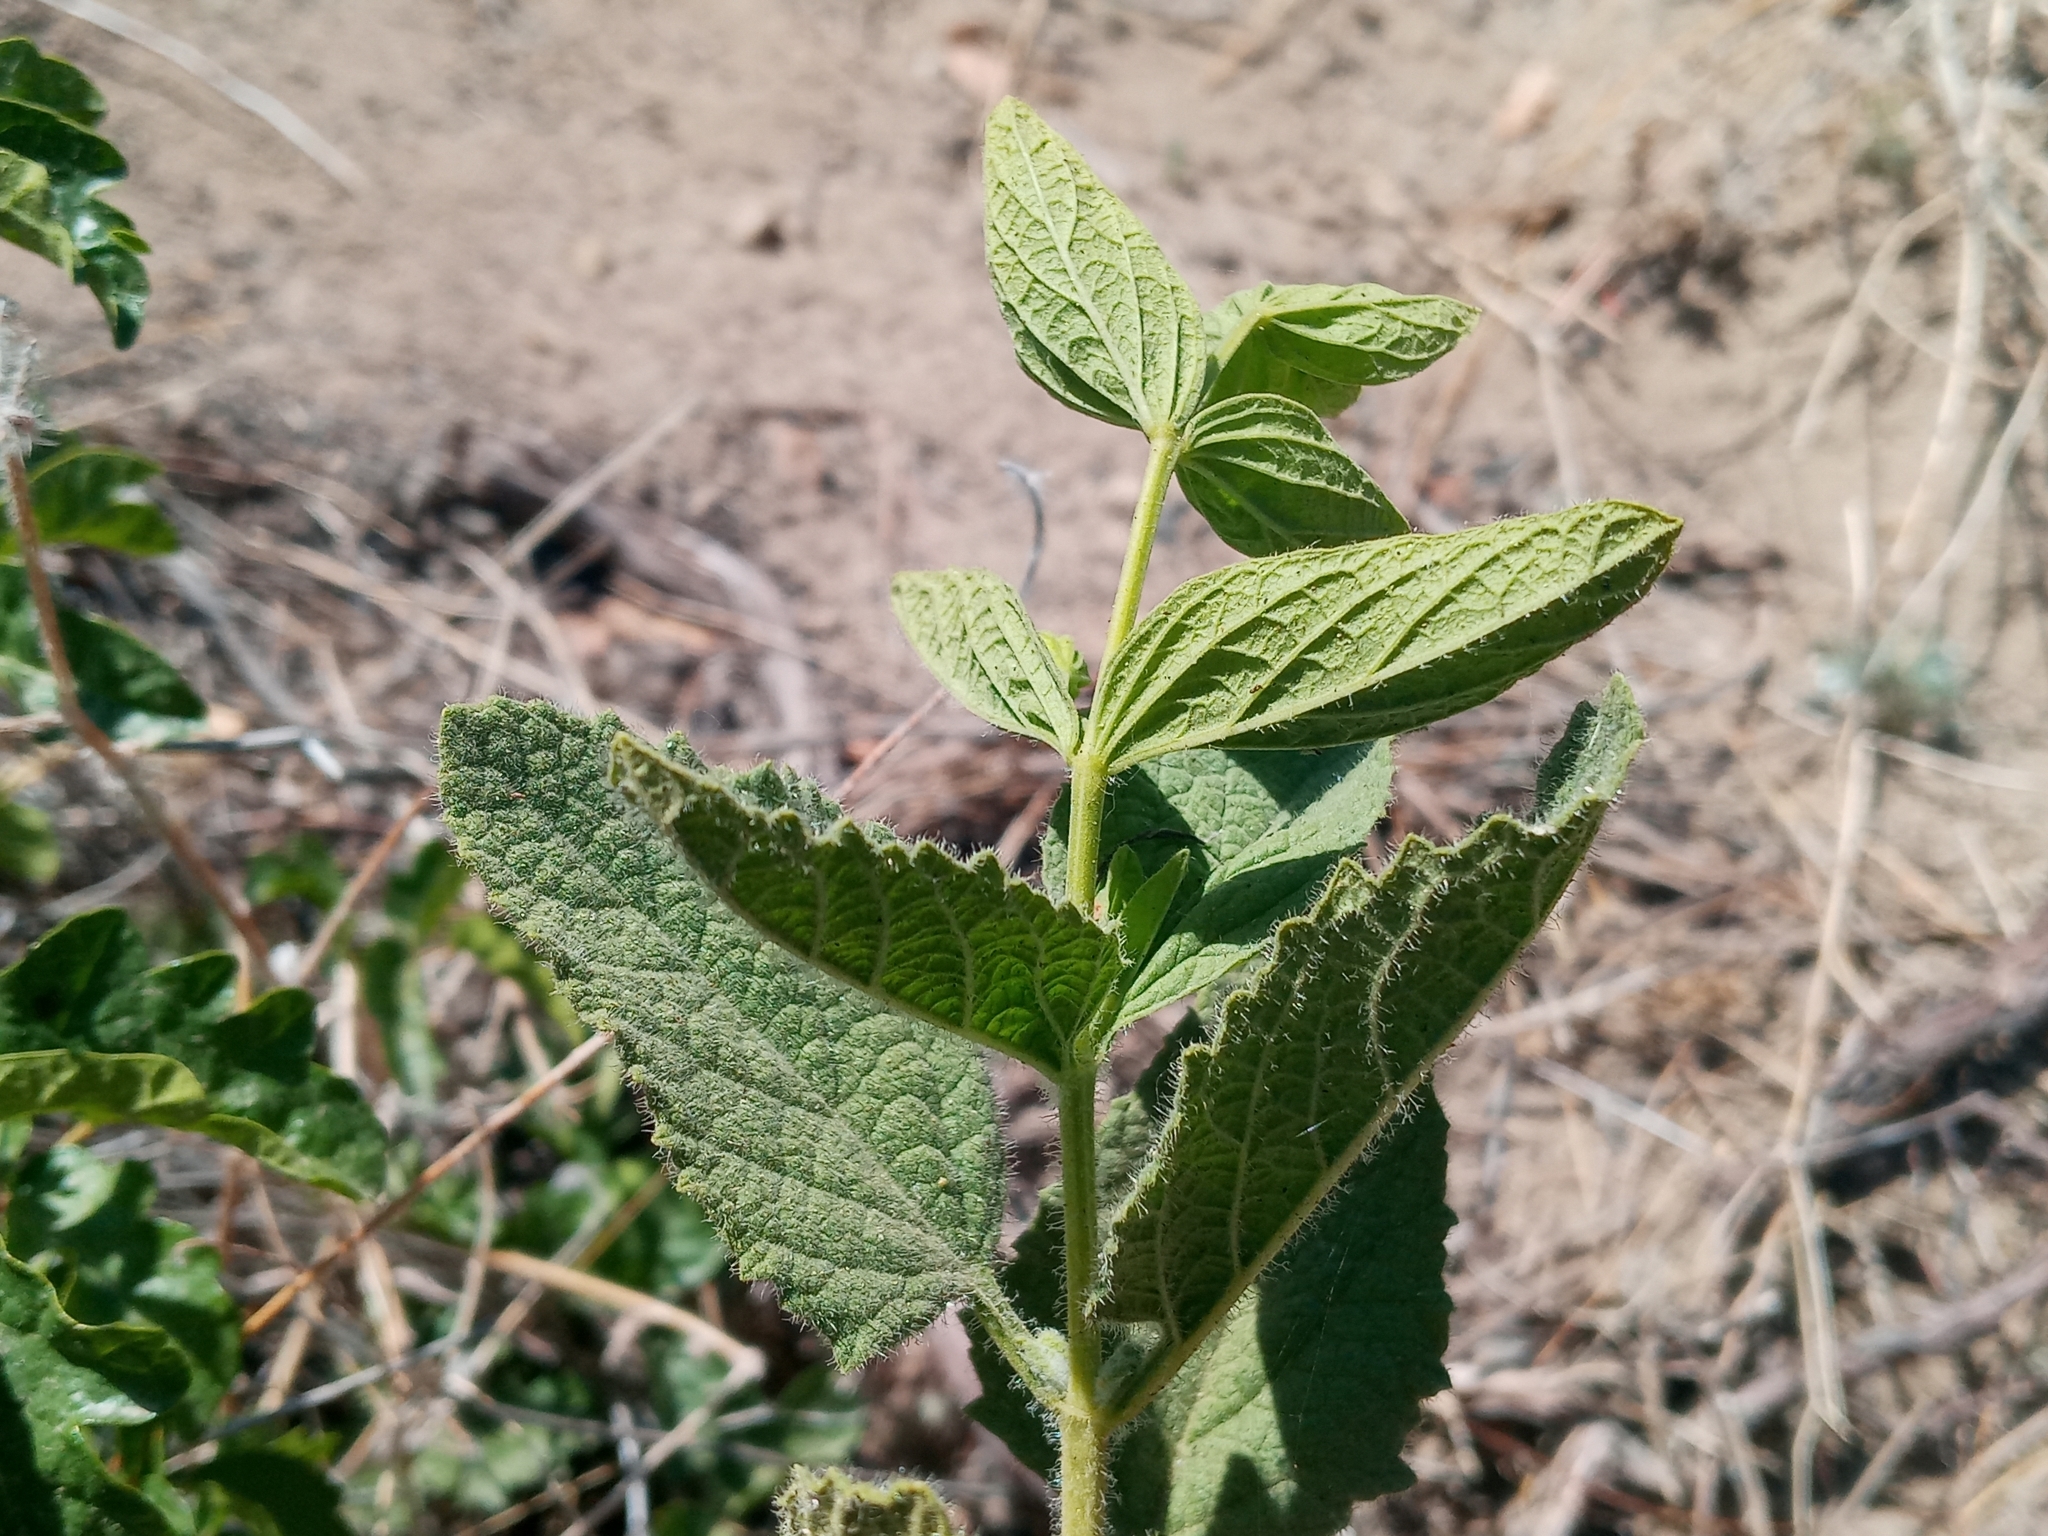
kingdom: Plantae
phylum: Tracheophyta
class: Magnoliopsida
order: Lamiales
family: Lamiaceae
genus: Lepechinia
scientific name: Lepechinia rossii
